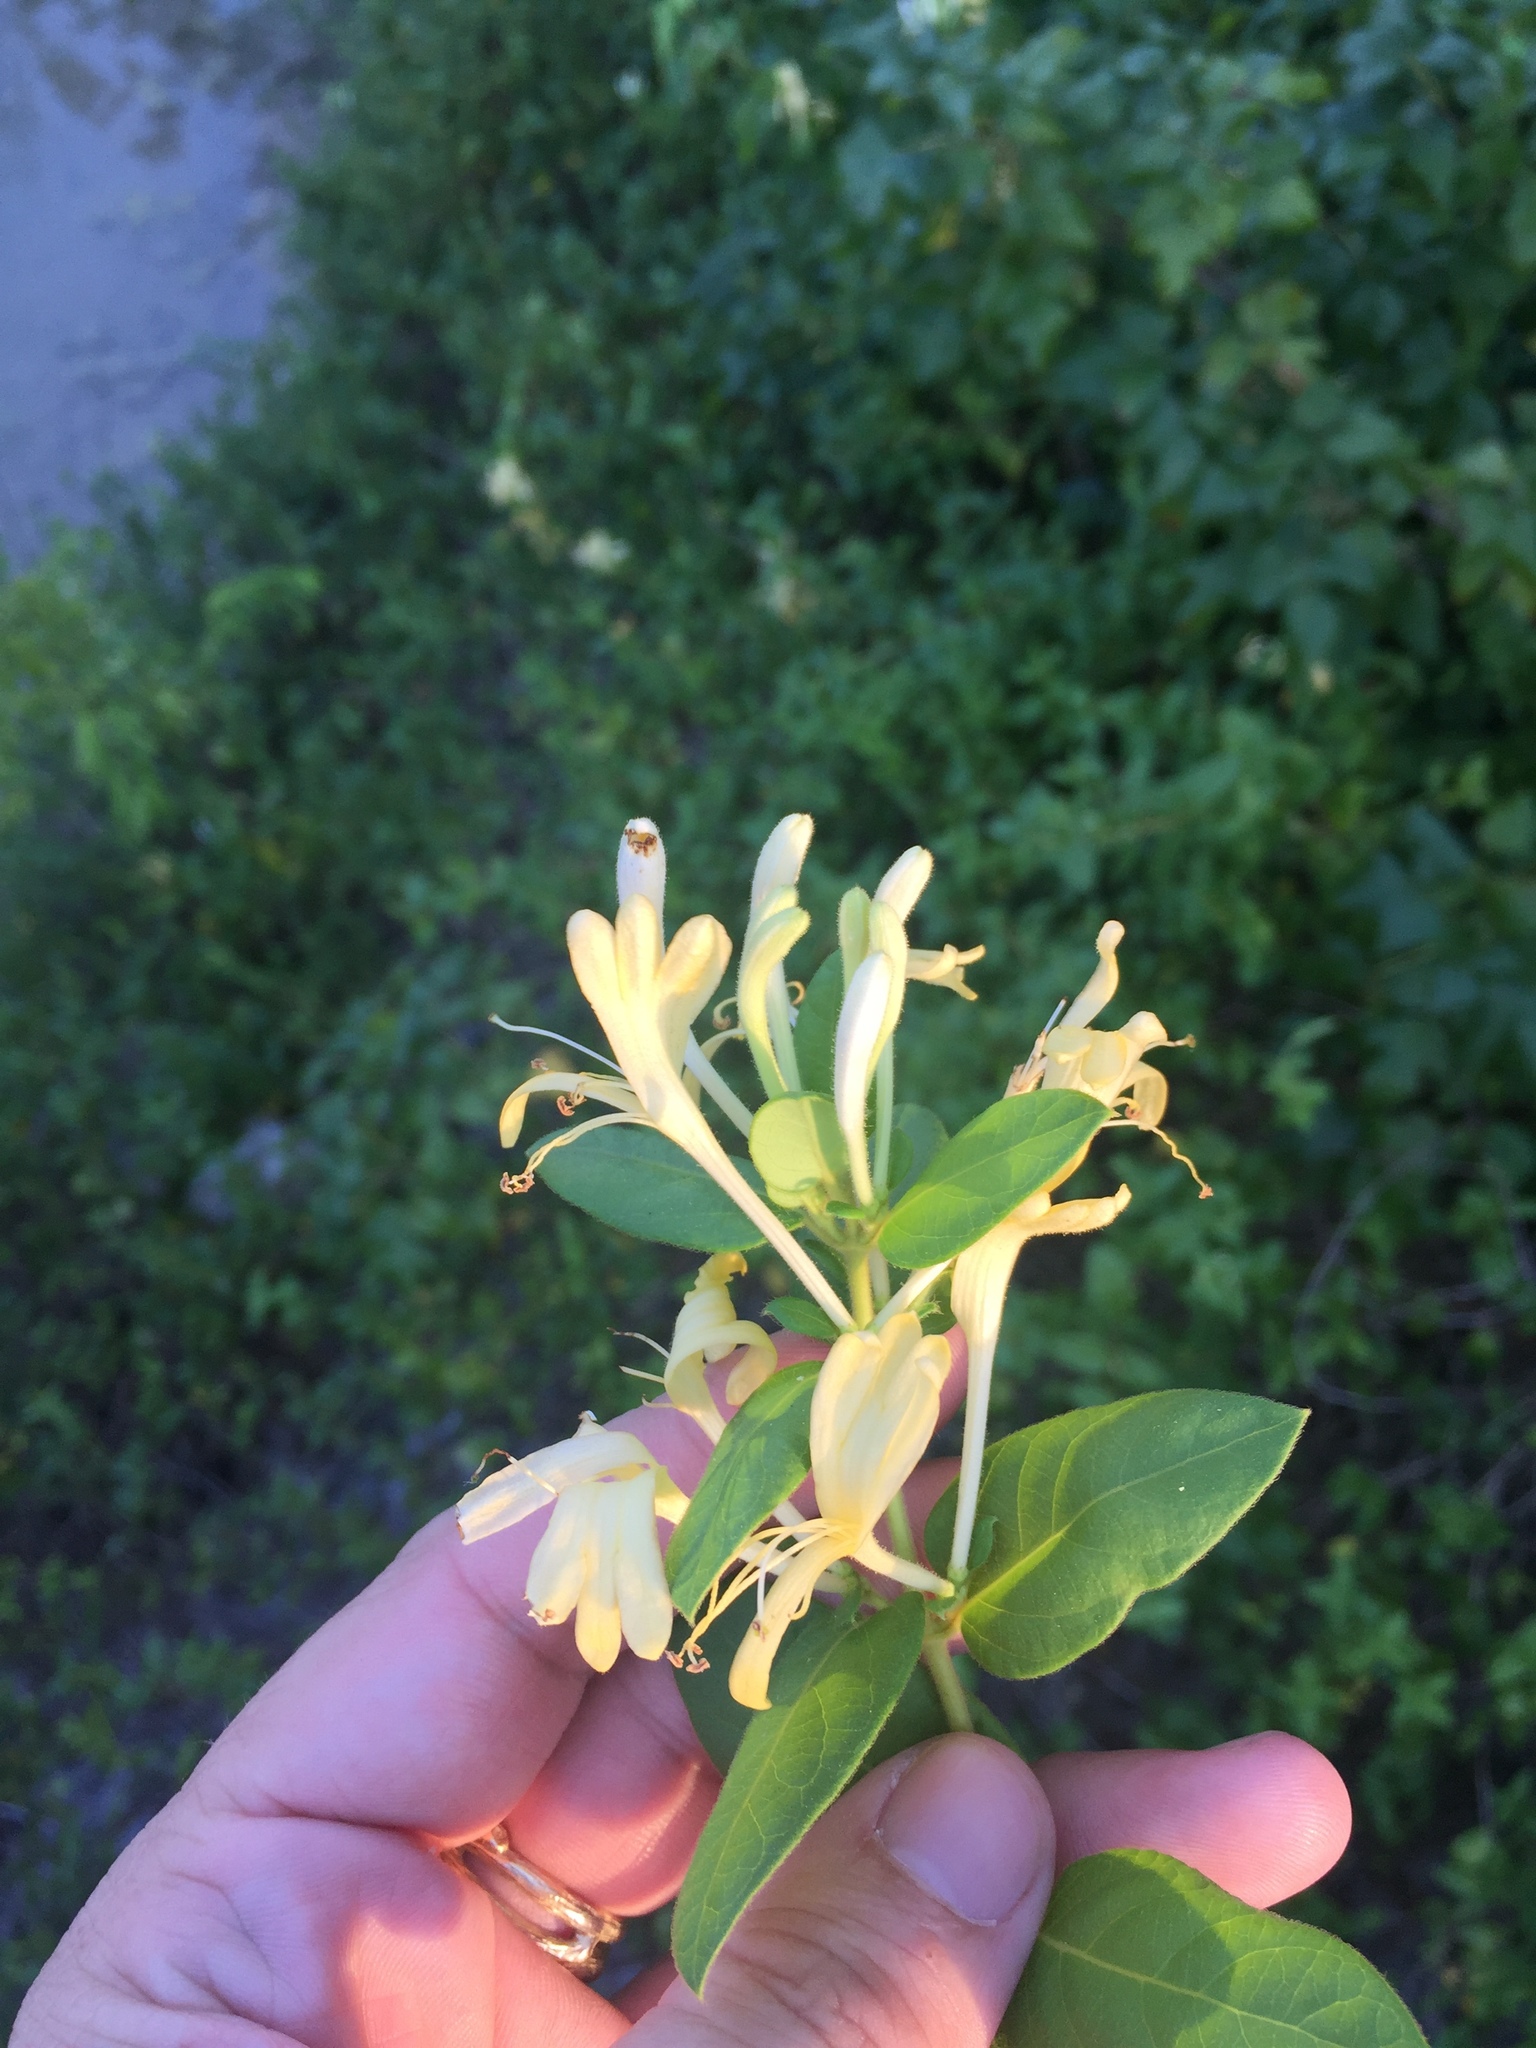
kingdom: Plantae
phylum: Tracheophyta
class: Magnoliopsida
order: Dipsacales
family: Caprifoliaceae
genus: Lonicera
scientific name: Lonicera japonica
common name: Japanese honeysuckle
